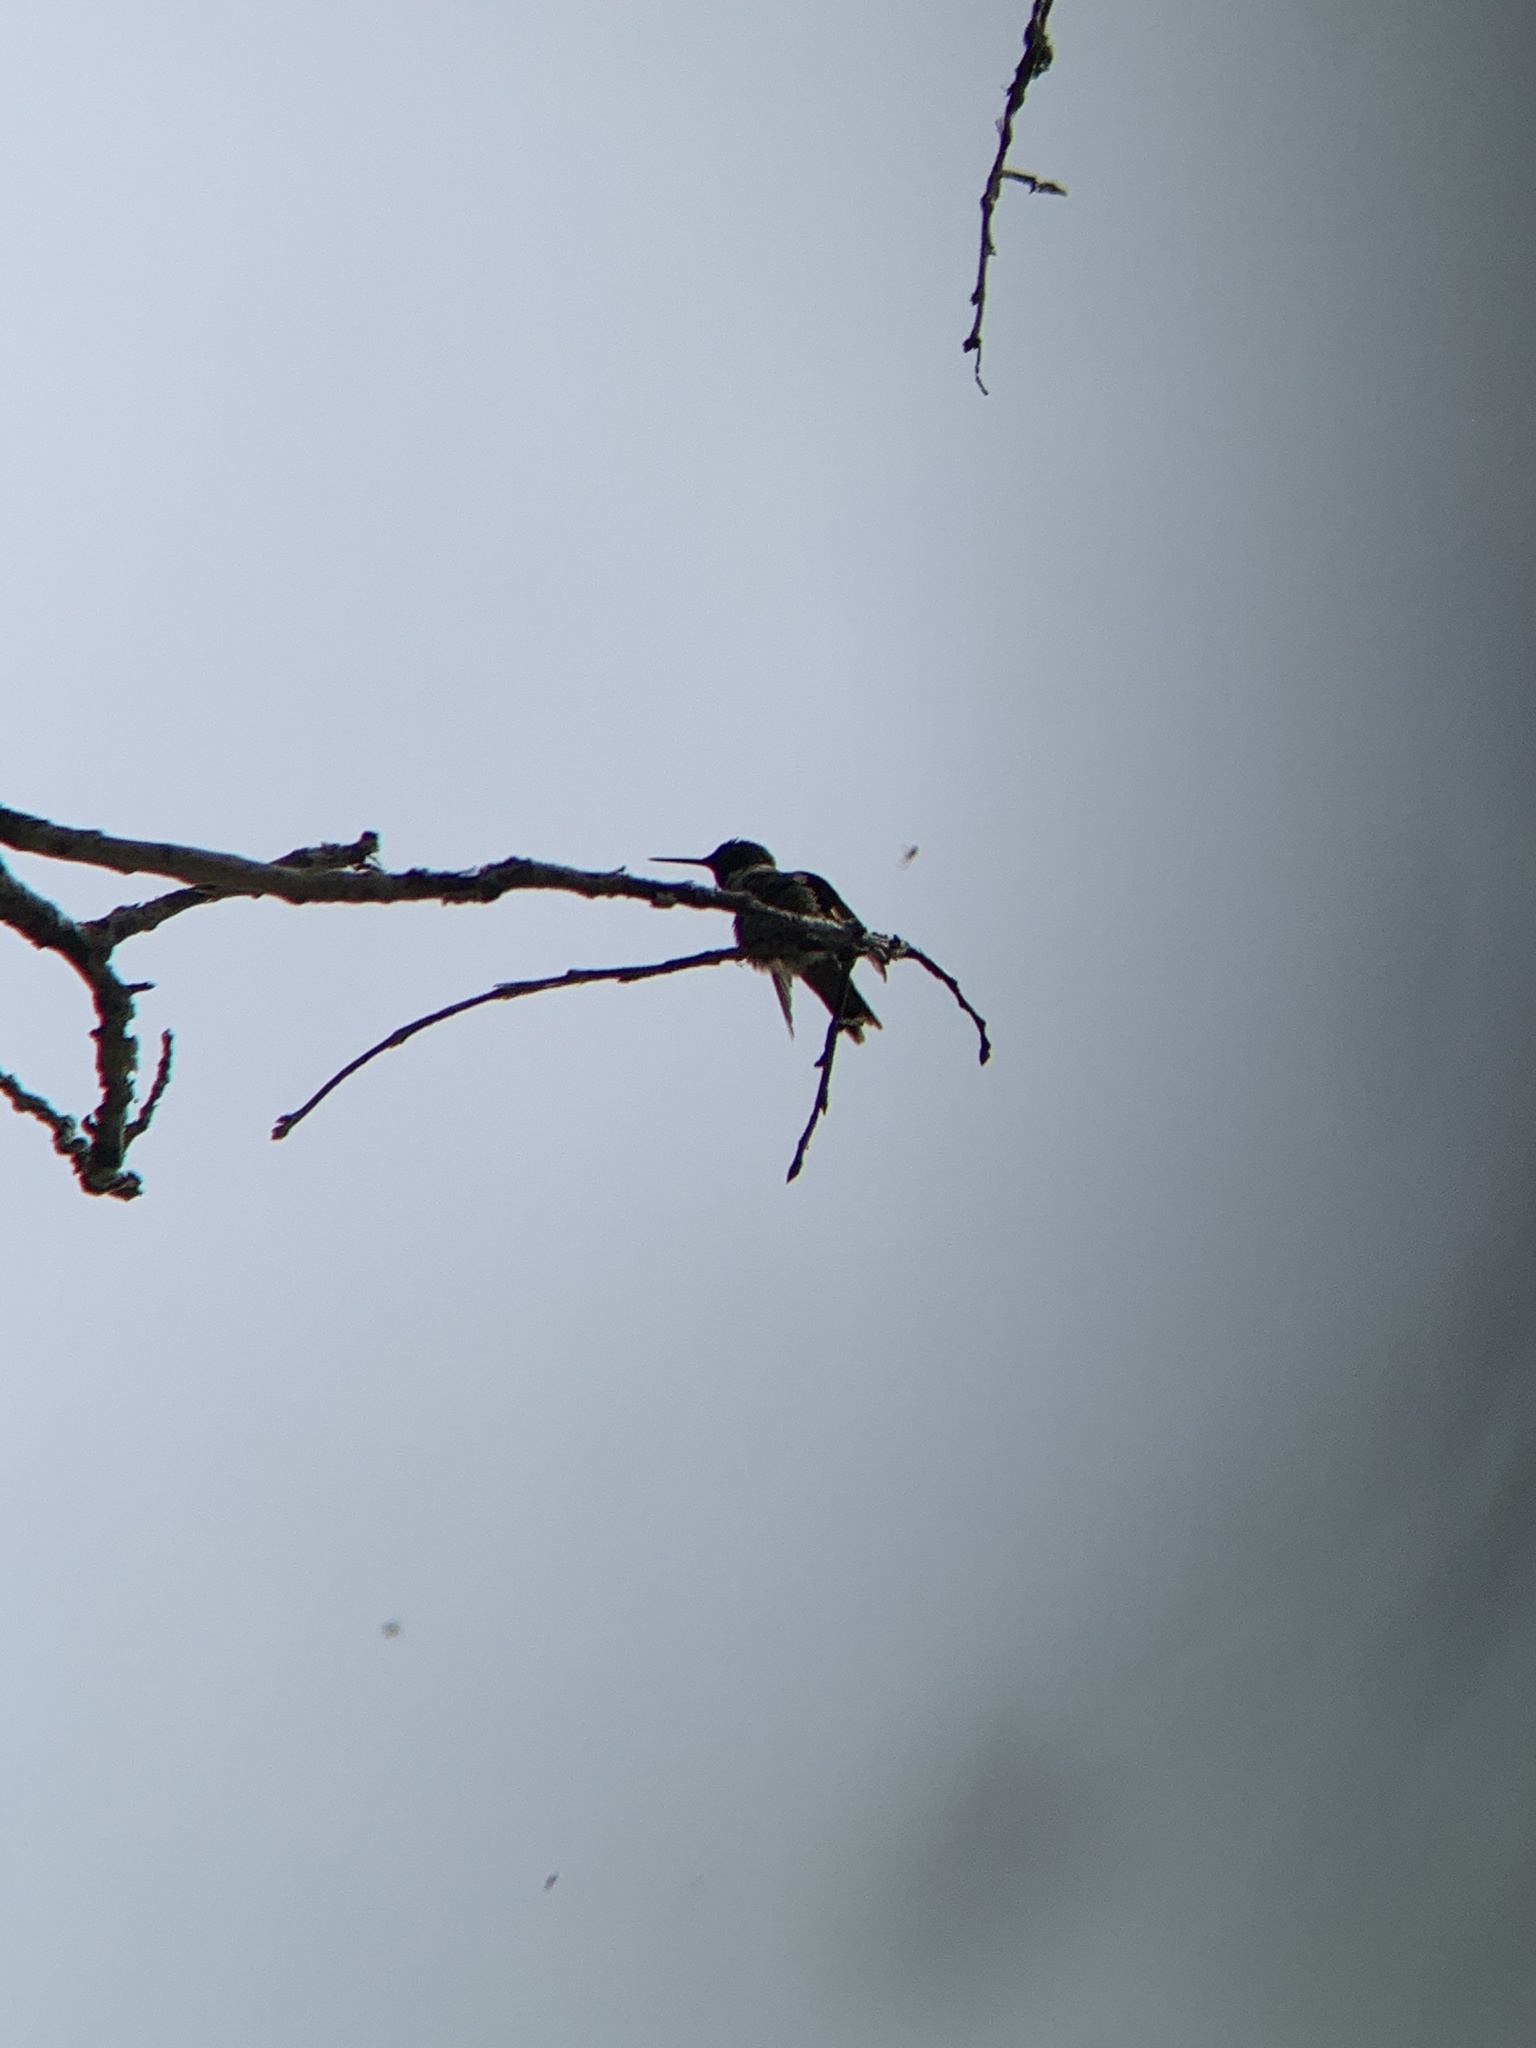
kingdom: Animalia
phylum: Chordata
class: Aves
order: Apodiformes
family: Trochilidae
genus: Archilochus
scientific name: Archilochus colubris
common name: Ruby-throated hummingbird
